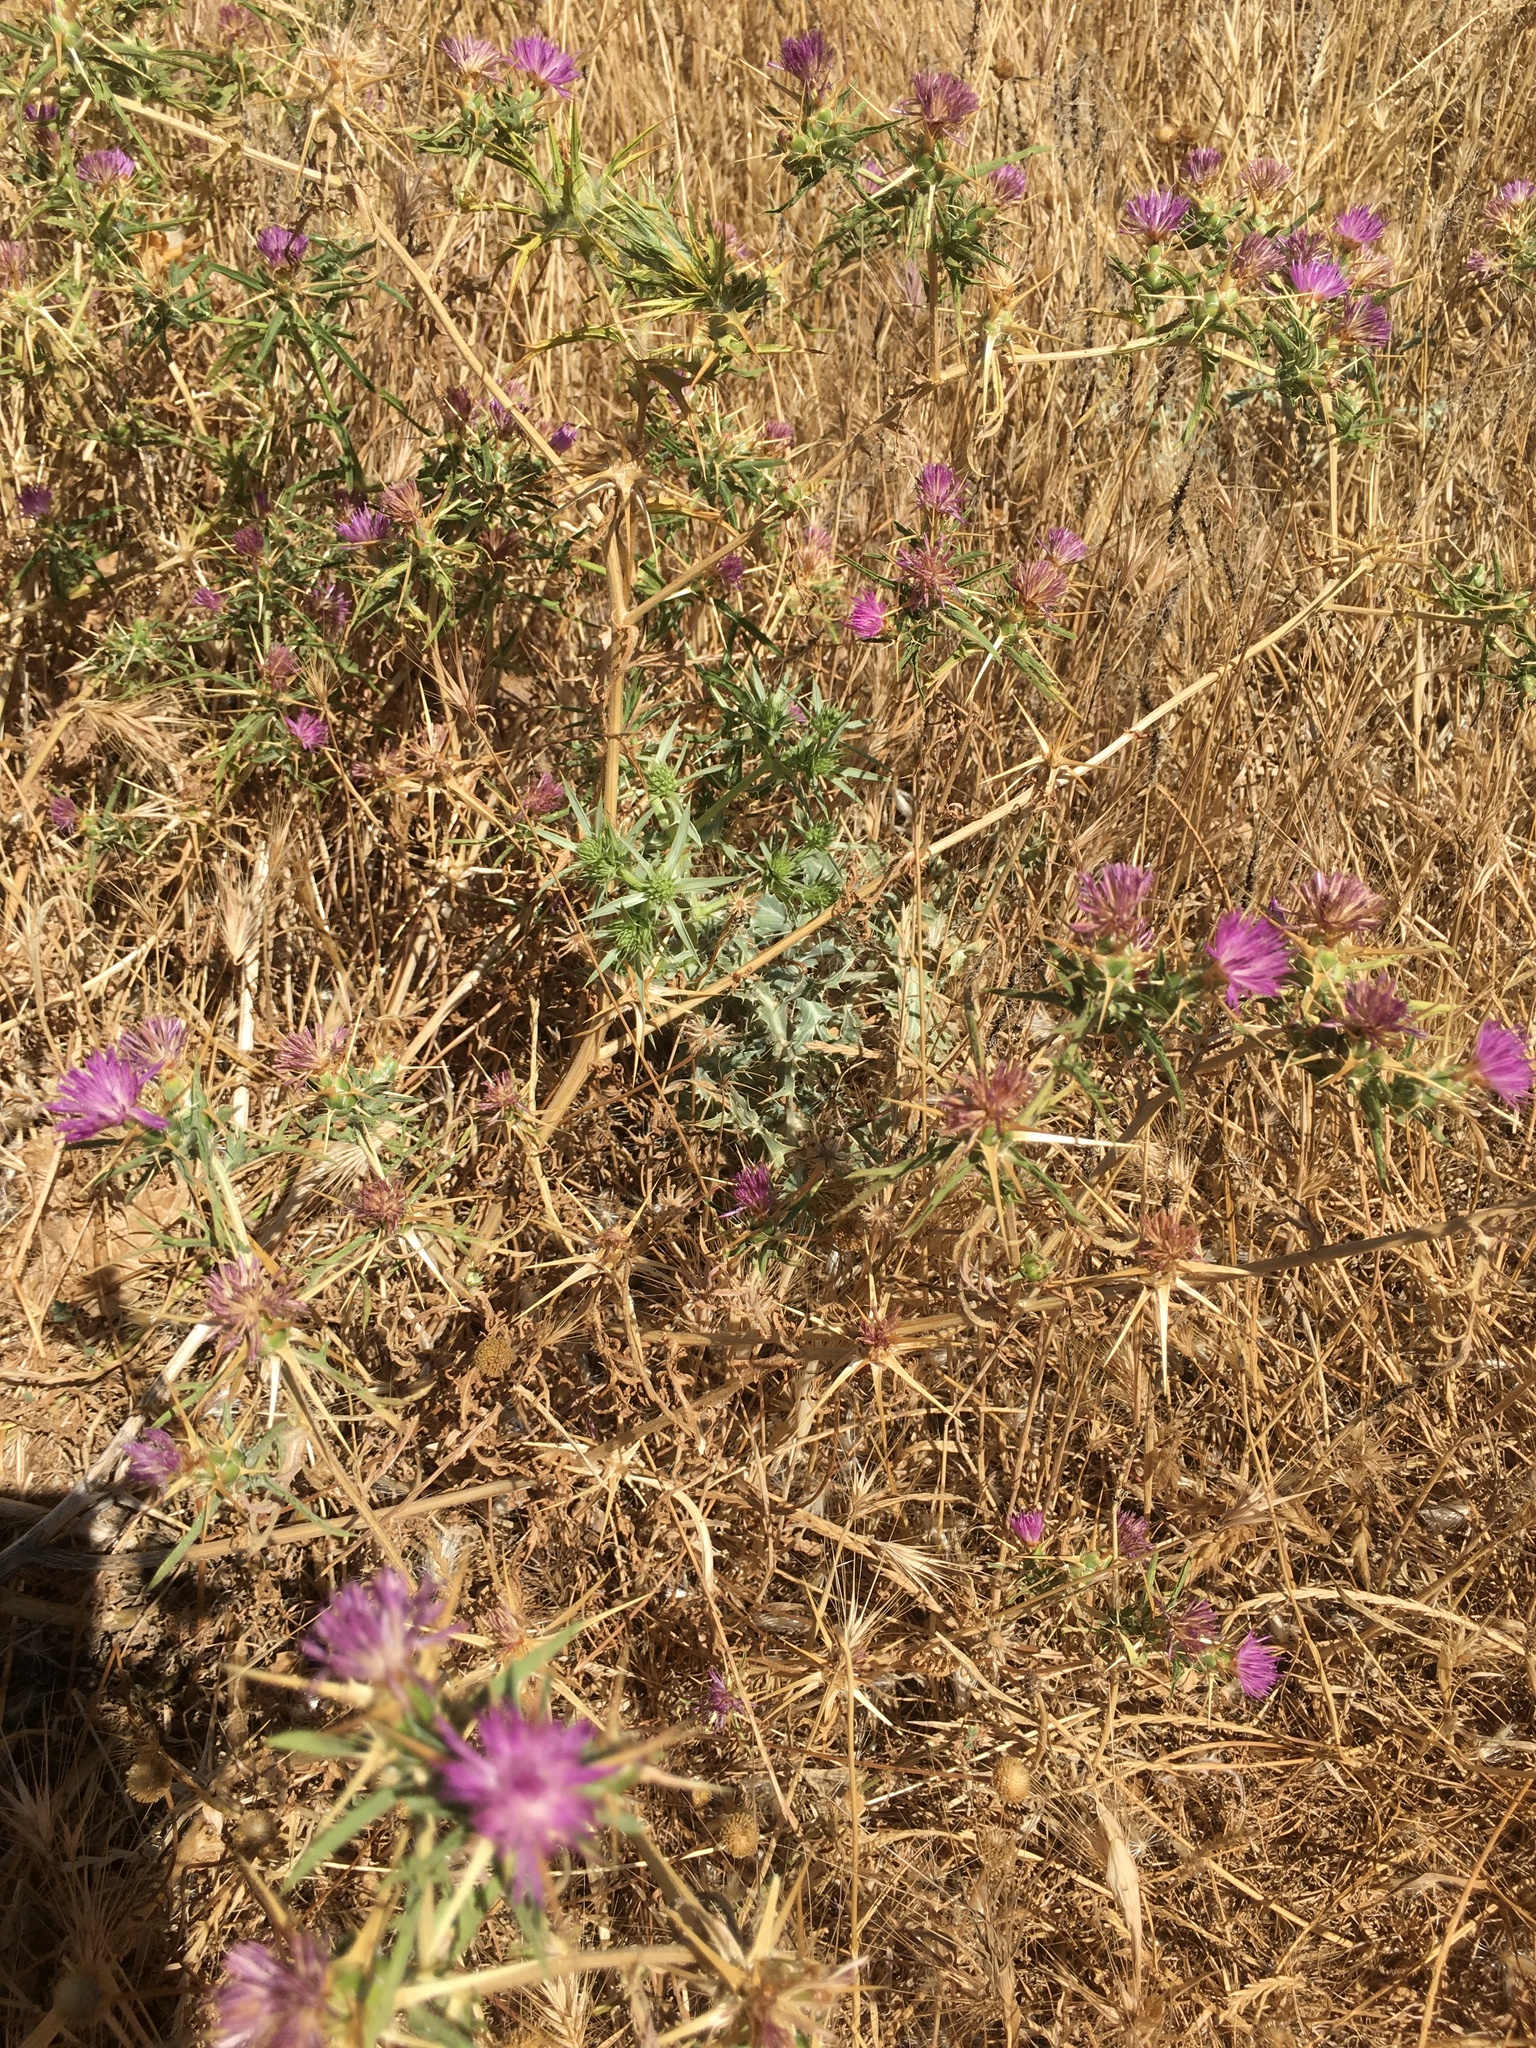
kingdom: Plantae
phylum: Tracheophyta
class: Magnoliopsida
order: Asterales
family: Asteraceae
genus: Centaurea
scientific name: Centaurea calcitrapa
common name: Red star-thistle
